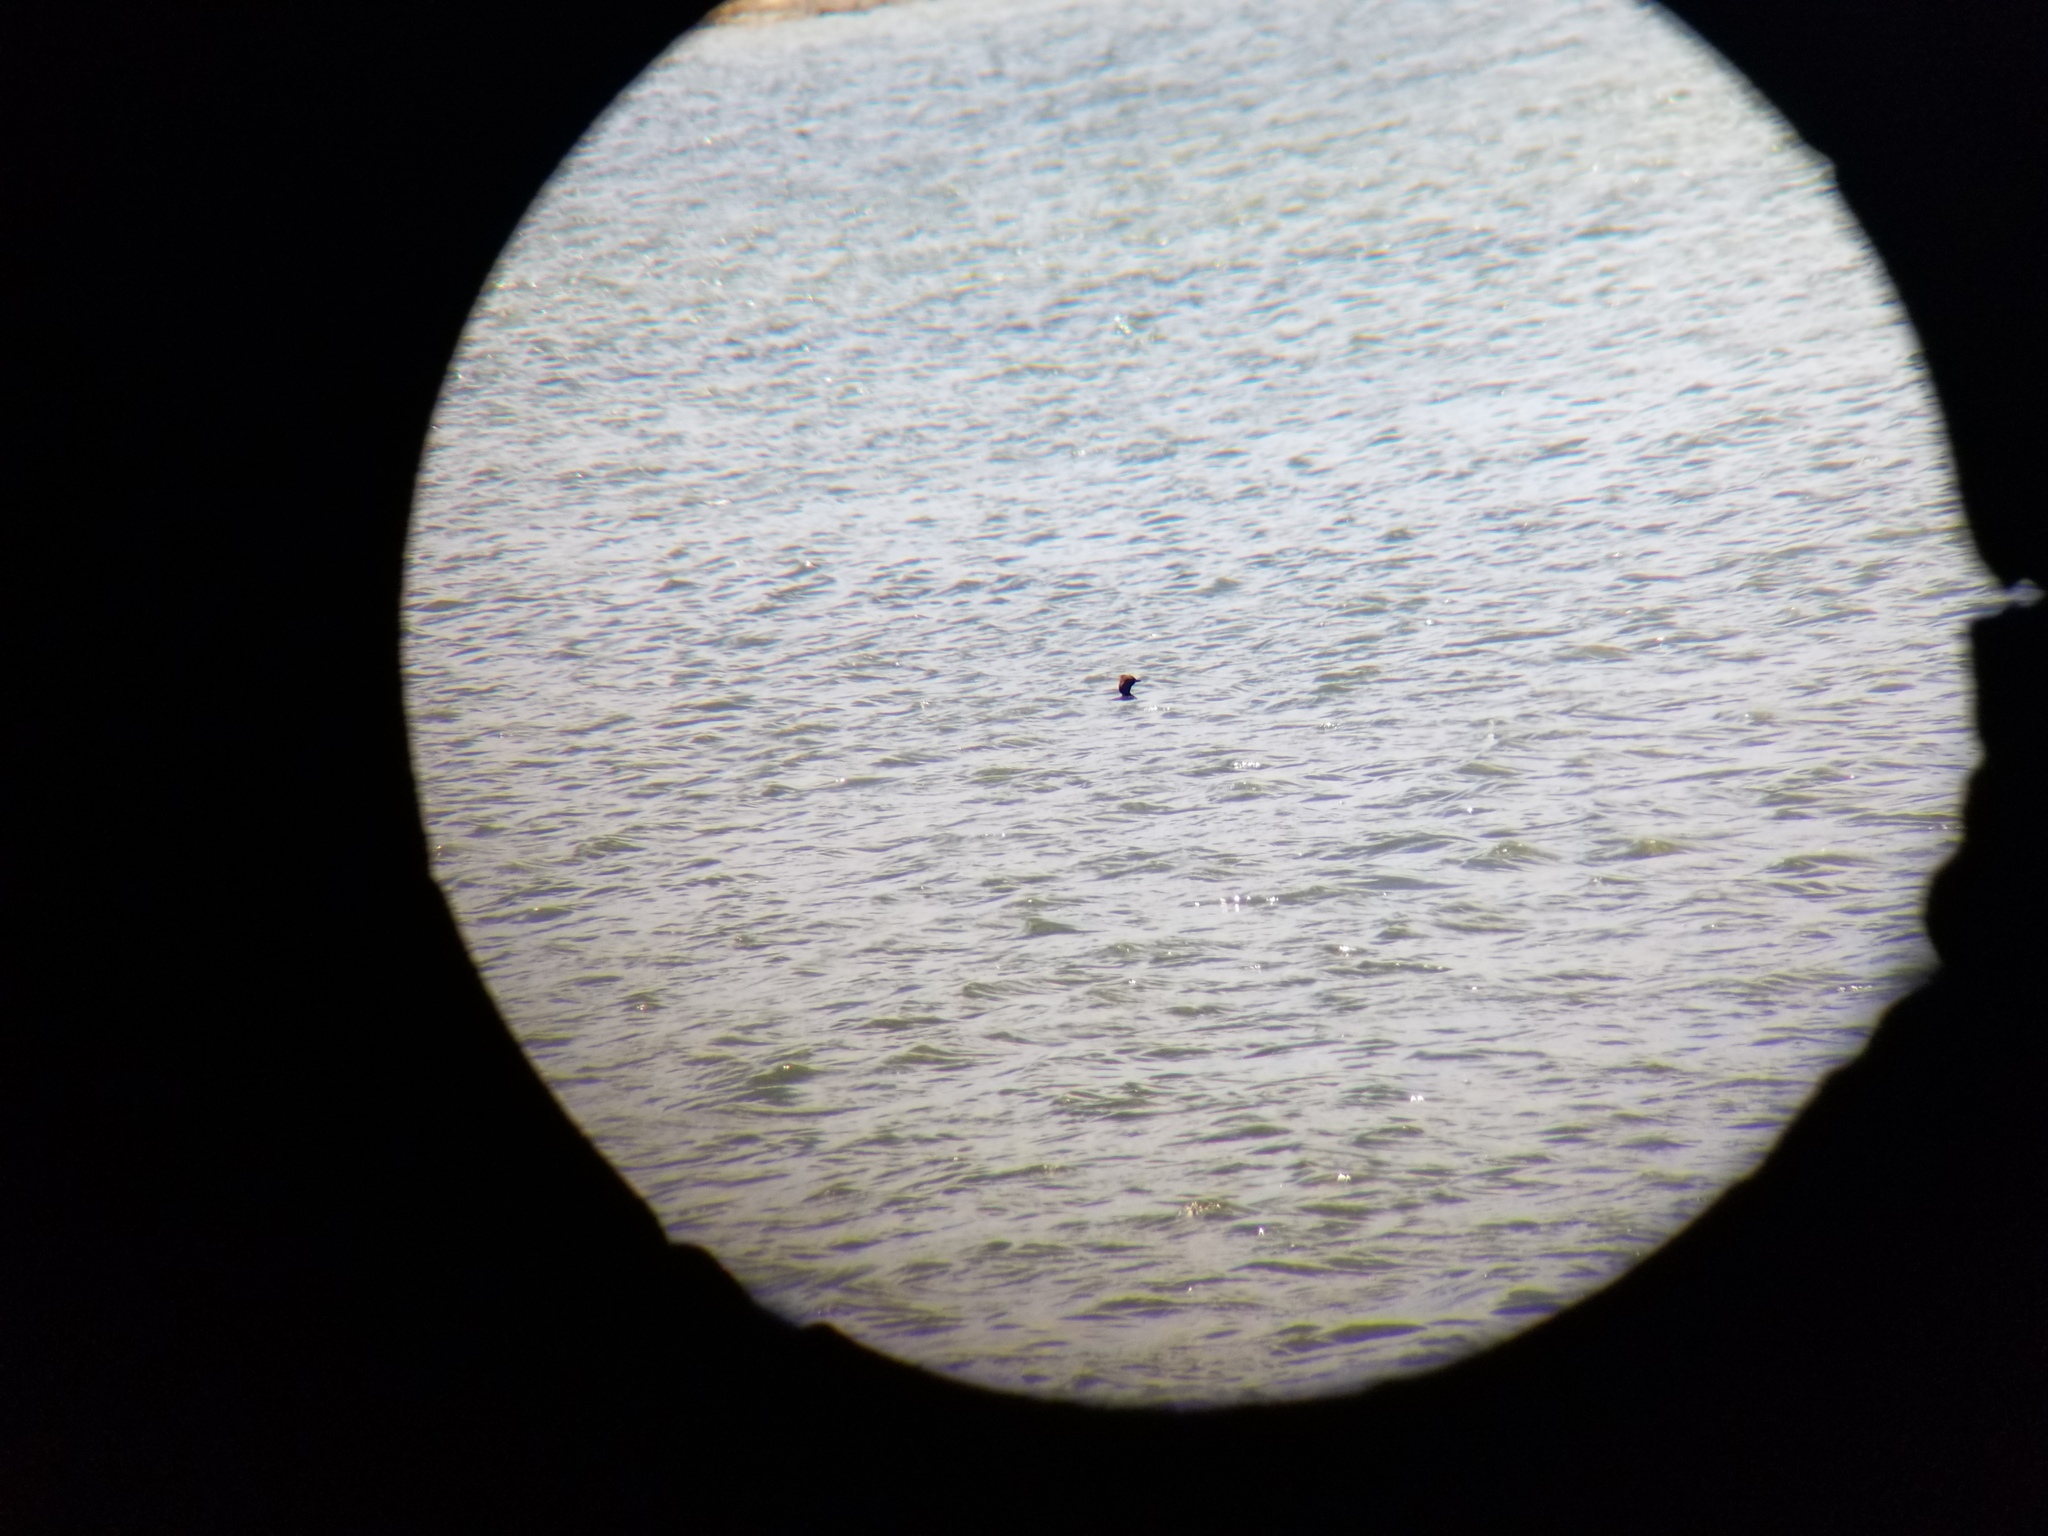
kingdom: Animalia
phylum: Chordata
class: Aves
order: Podicipediformes
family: Podicipedidae
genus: Podiceps
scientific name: Podiceps auritus
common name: Horned grebe
